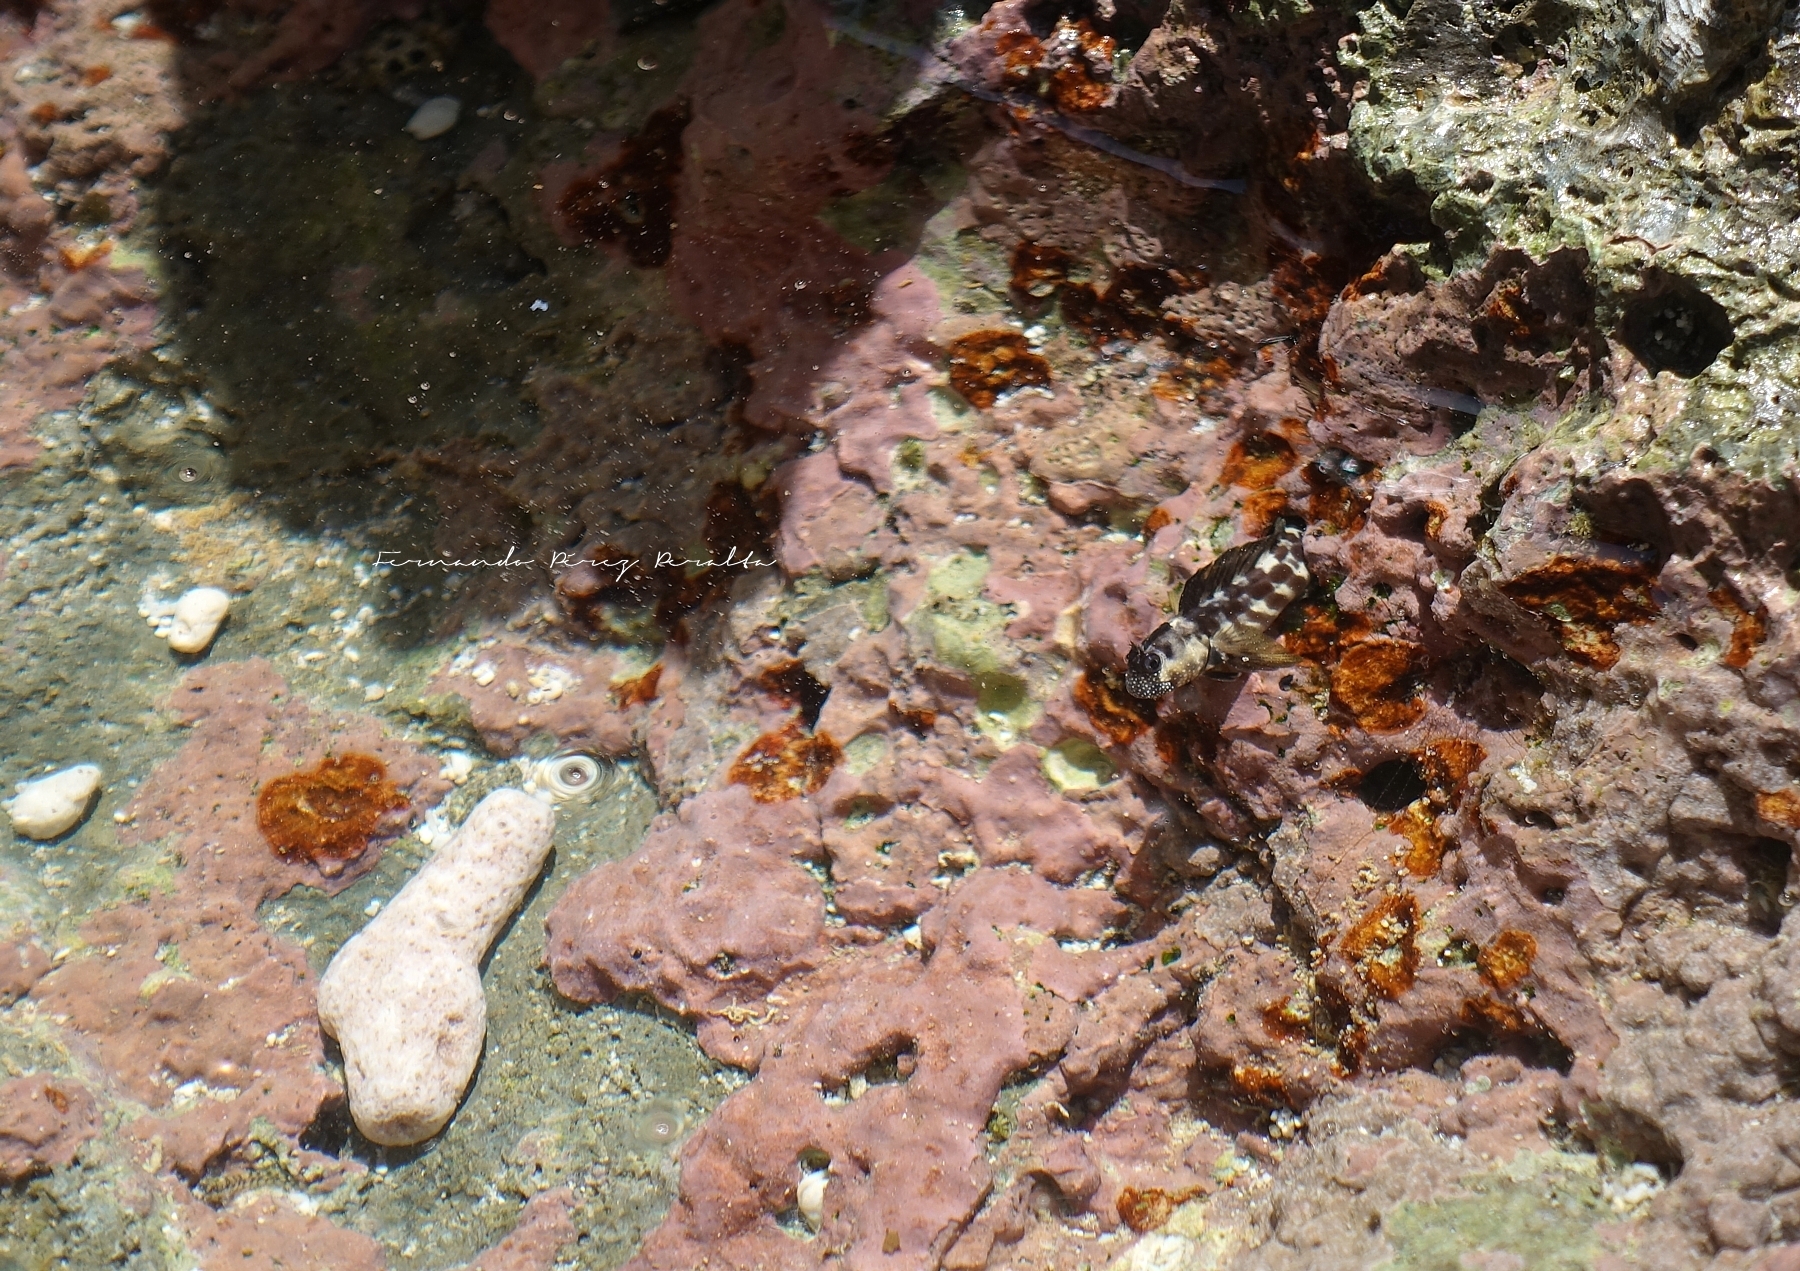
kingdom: Animalia
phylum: Chordata
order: Perciformes
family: Blenniidae
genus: Praealticus
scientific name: Praealticus natalis
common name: Natal rockskipper
